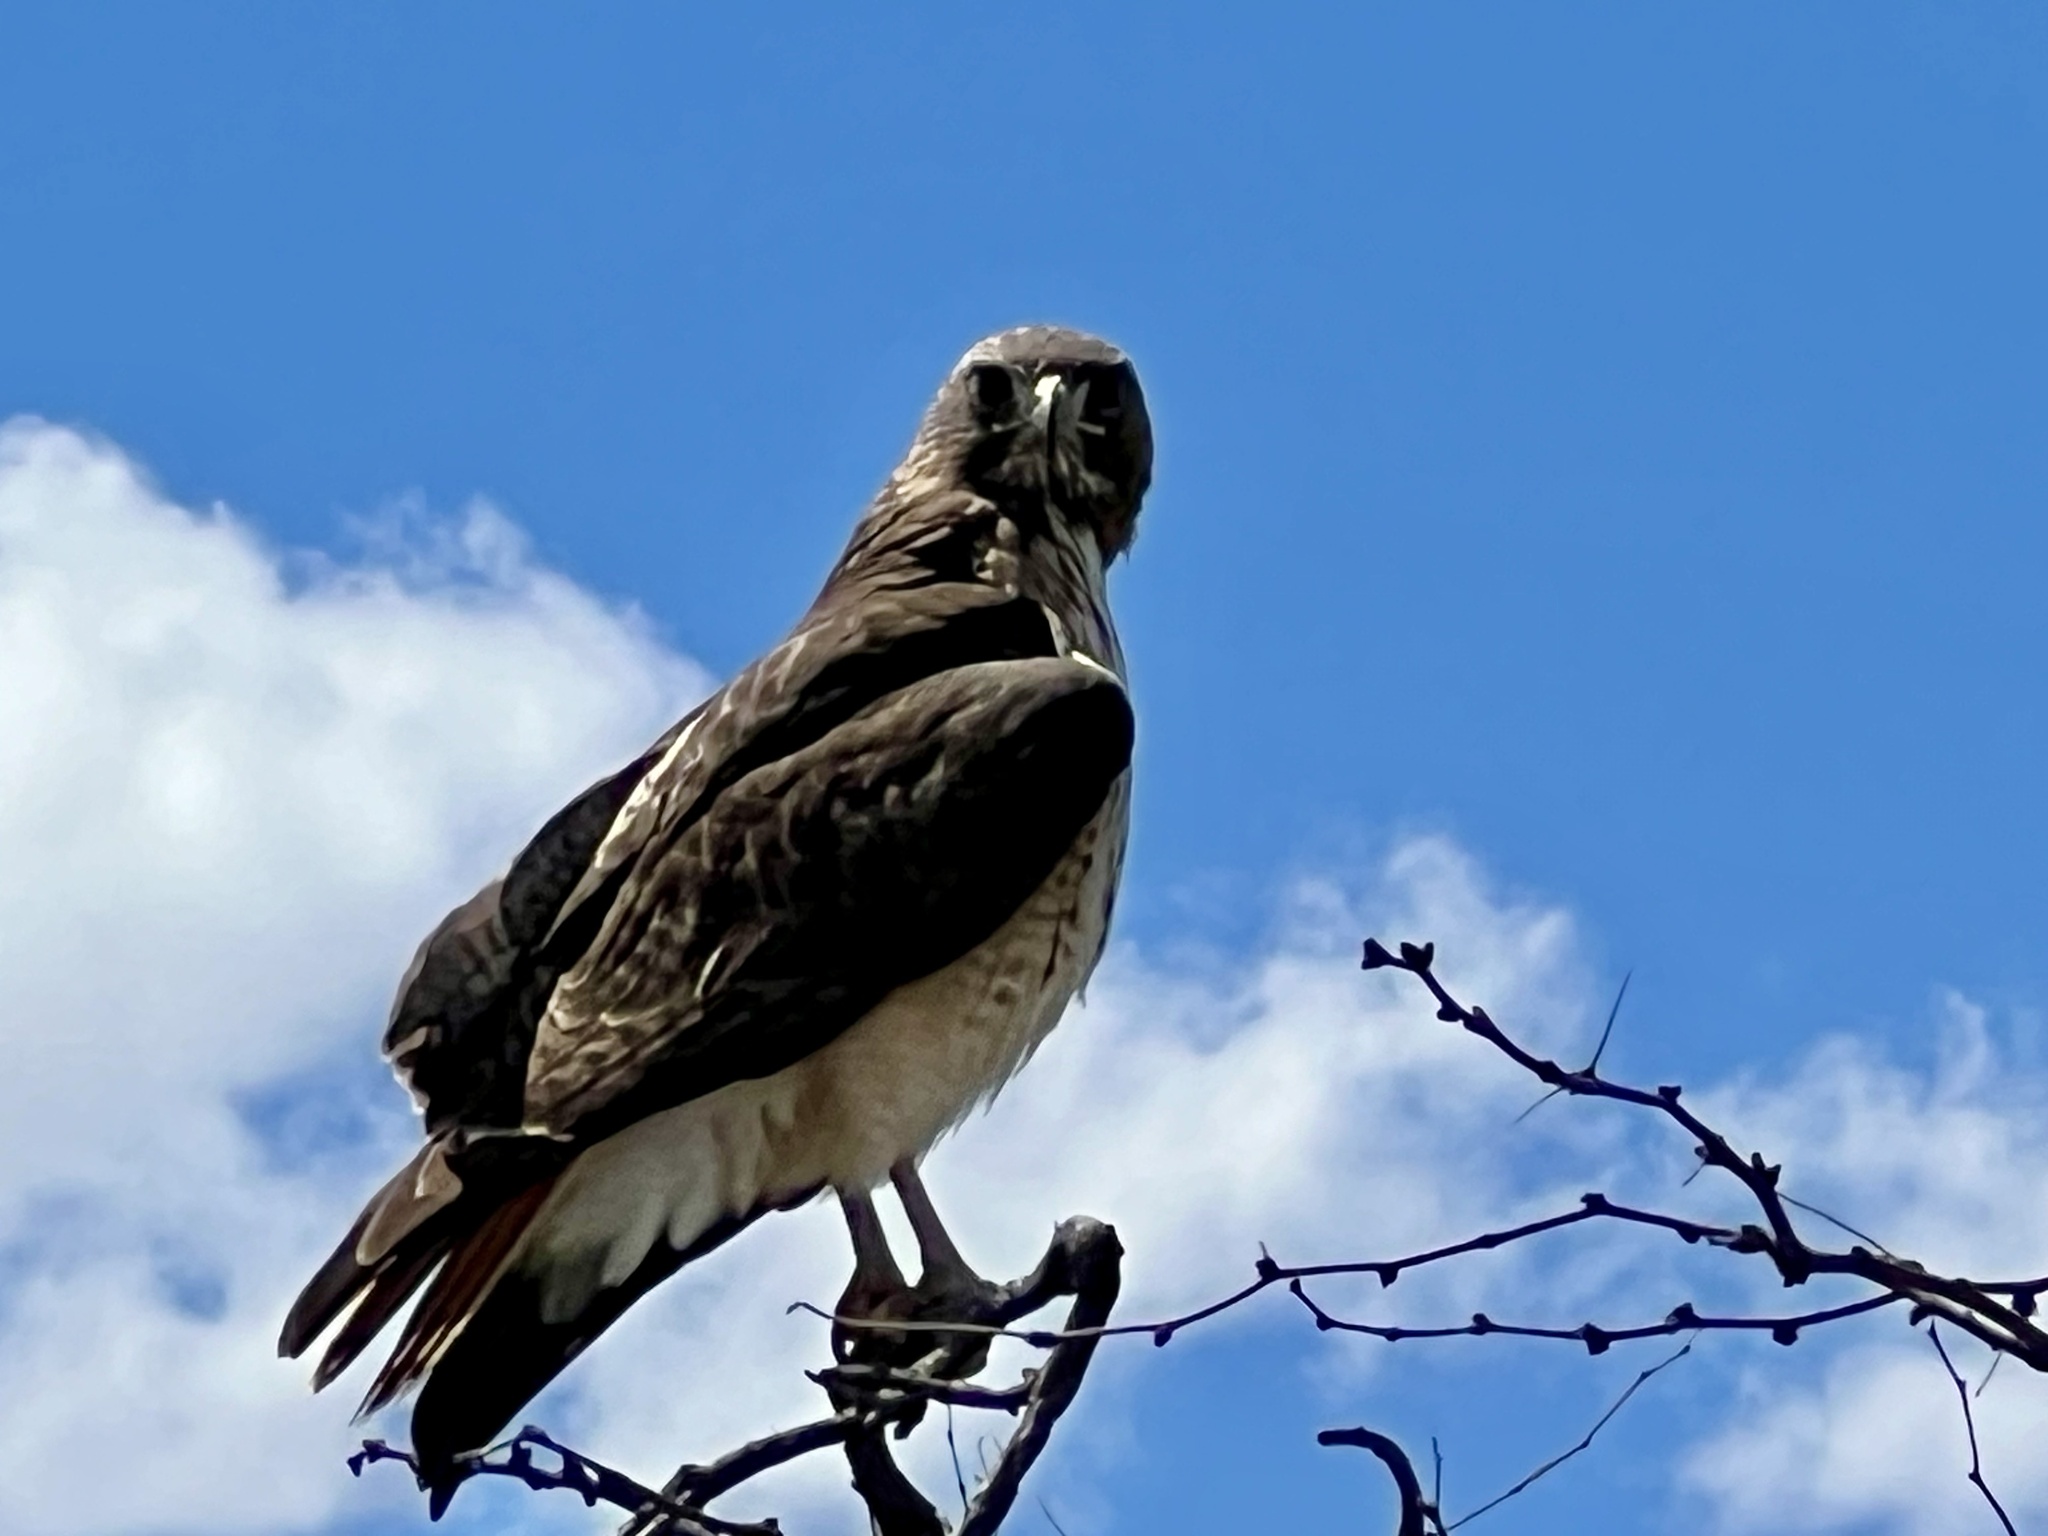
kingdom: Animalia
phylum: Chordata
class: Aves
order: Accipitriformes
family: Accipitridae
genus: Buteo
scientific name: Buteo jamaicensis
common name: Red-tailed hawk
